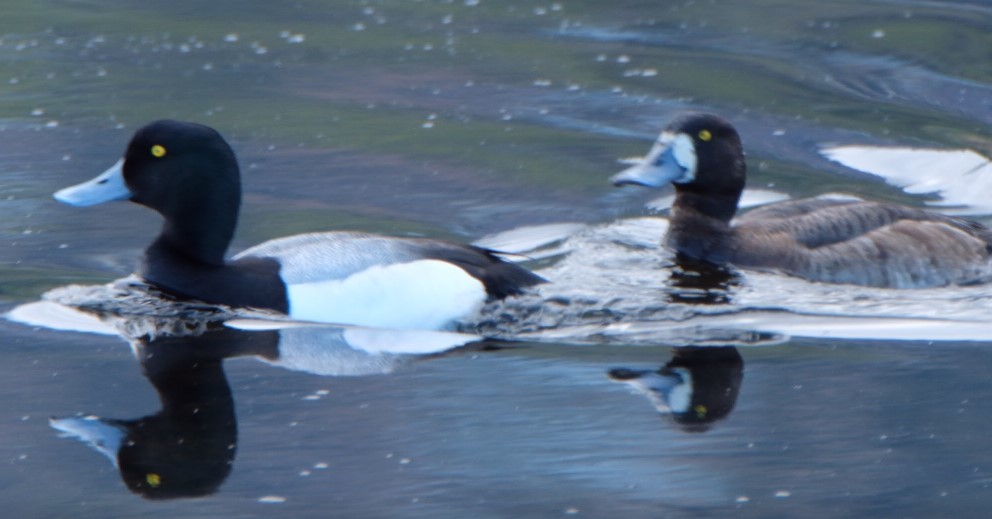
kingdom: Animalia
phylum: Chordata
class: Aves
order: Anseriformes
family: Anatidae
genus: Aythya
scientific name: Aythya marila
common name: Greater scaup
